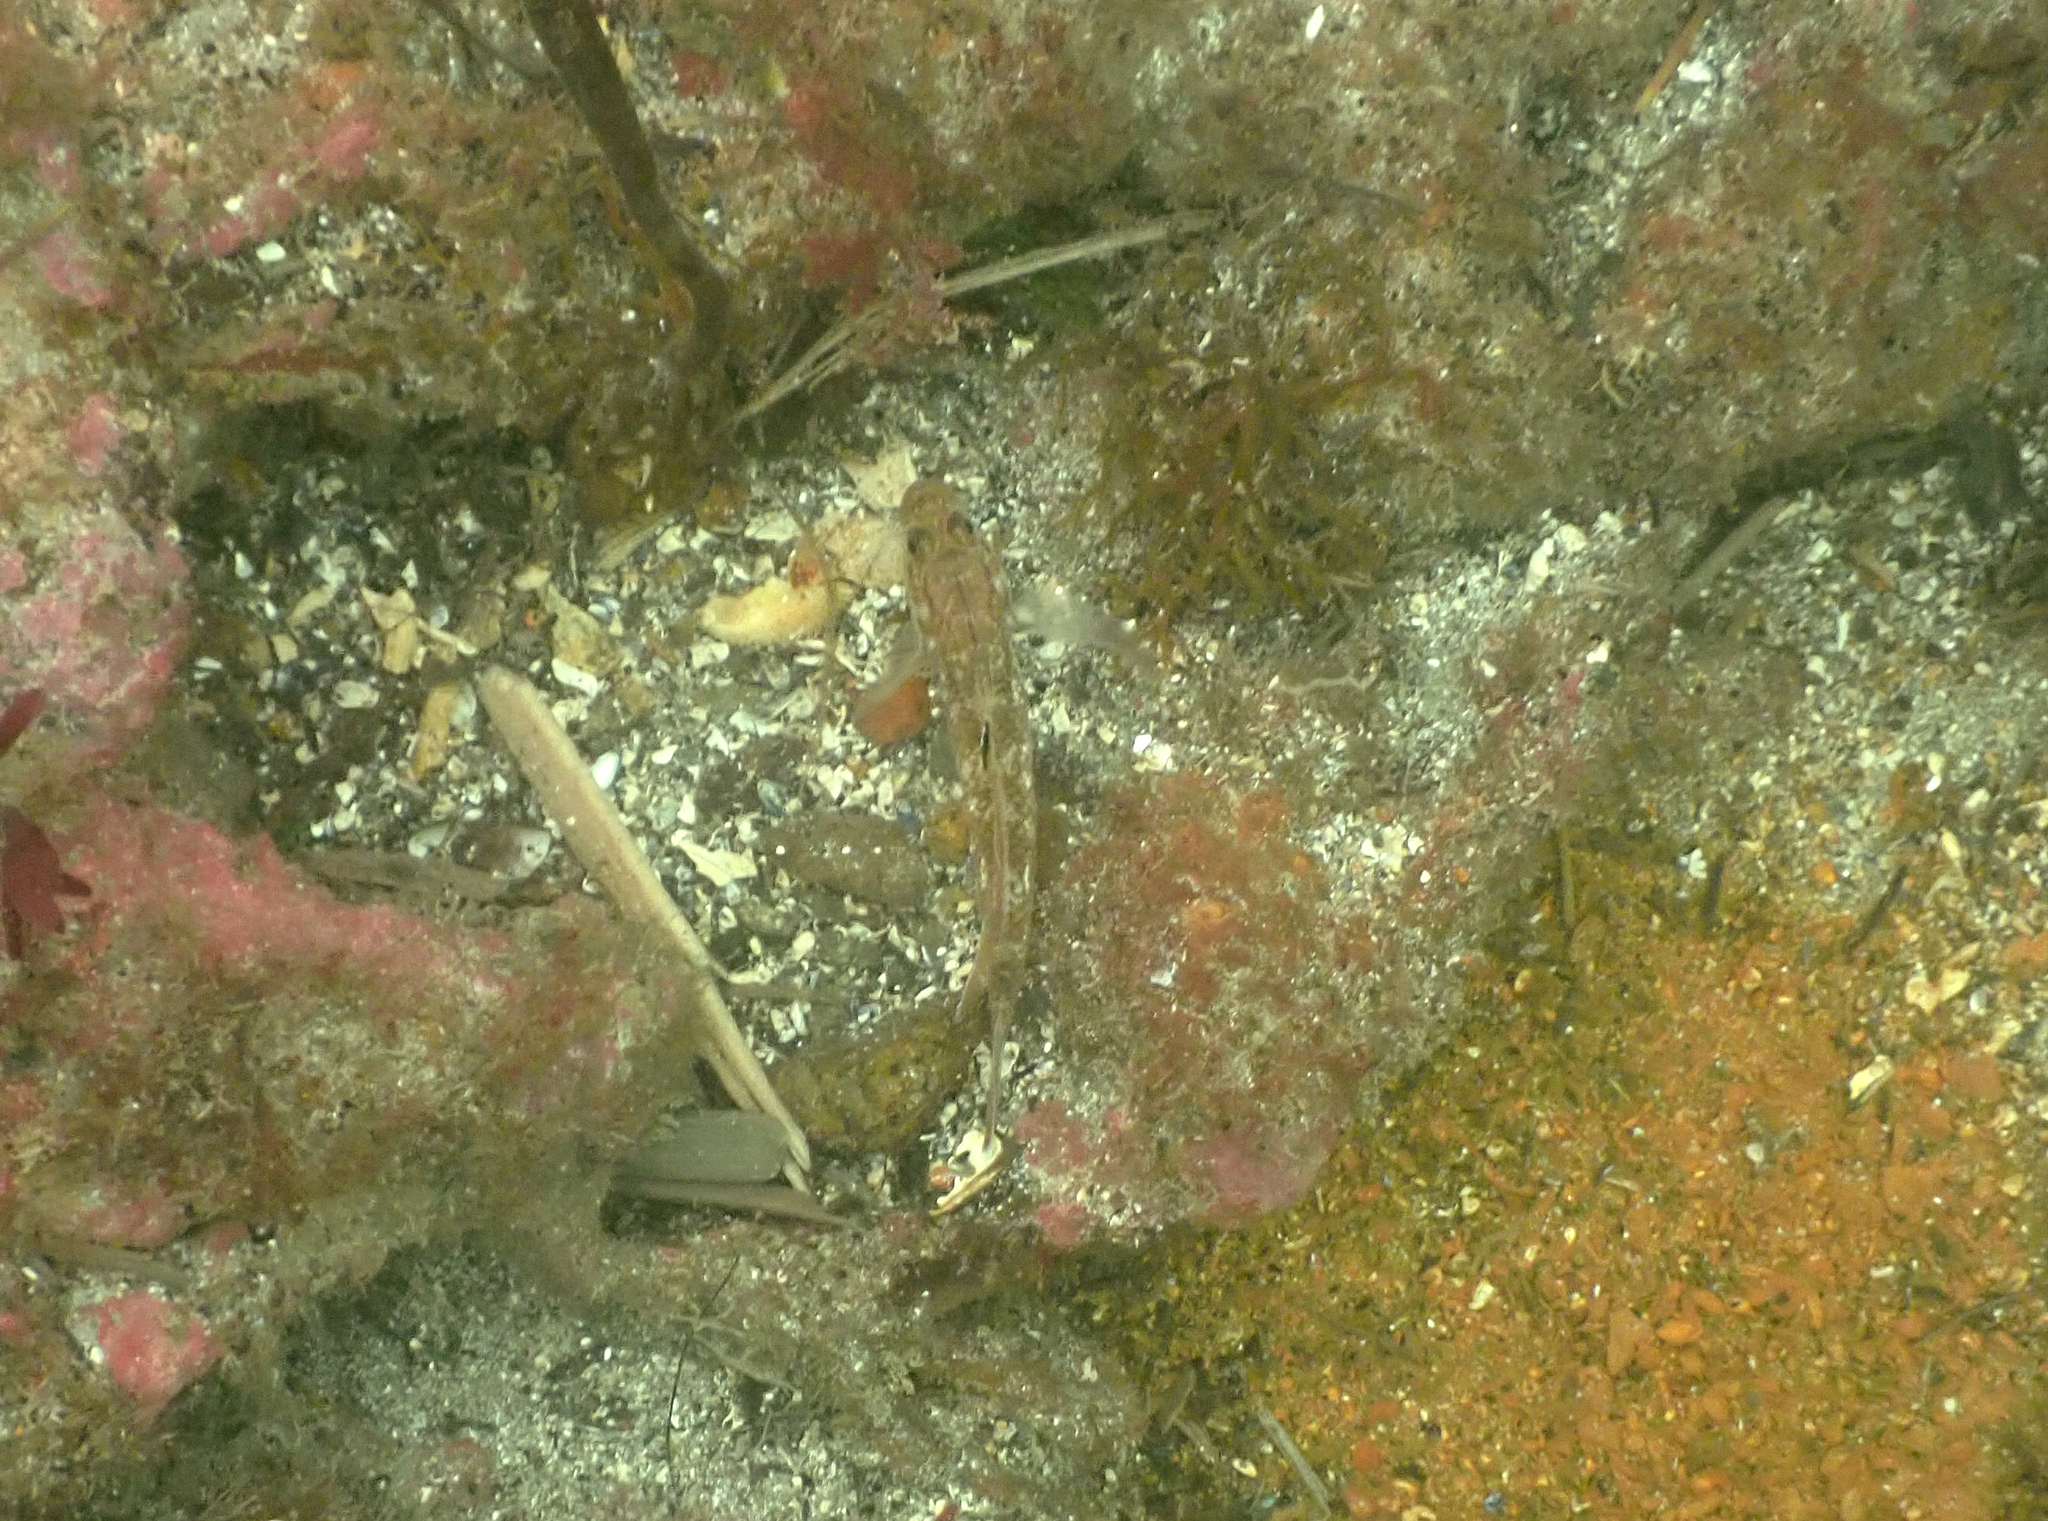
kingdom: Animalia
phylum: Chordata
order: Perciformes
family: Gobiidae
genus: Rhinogobiops
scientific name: Rhinogobiops nicholsii
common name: Blackeye goby
